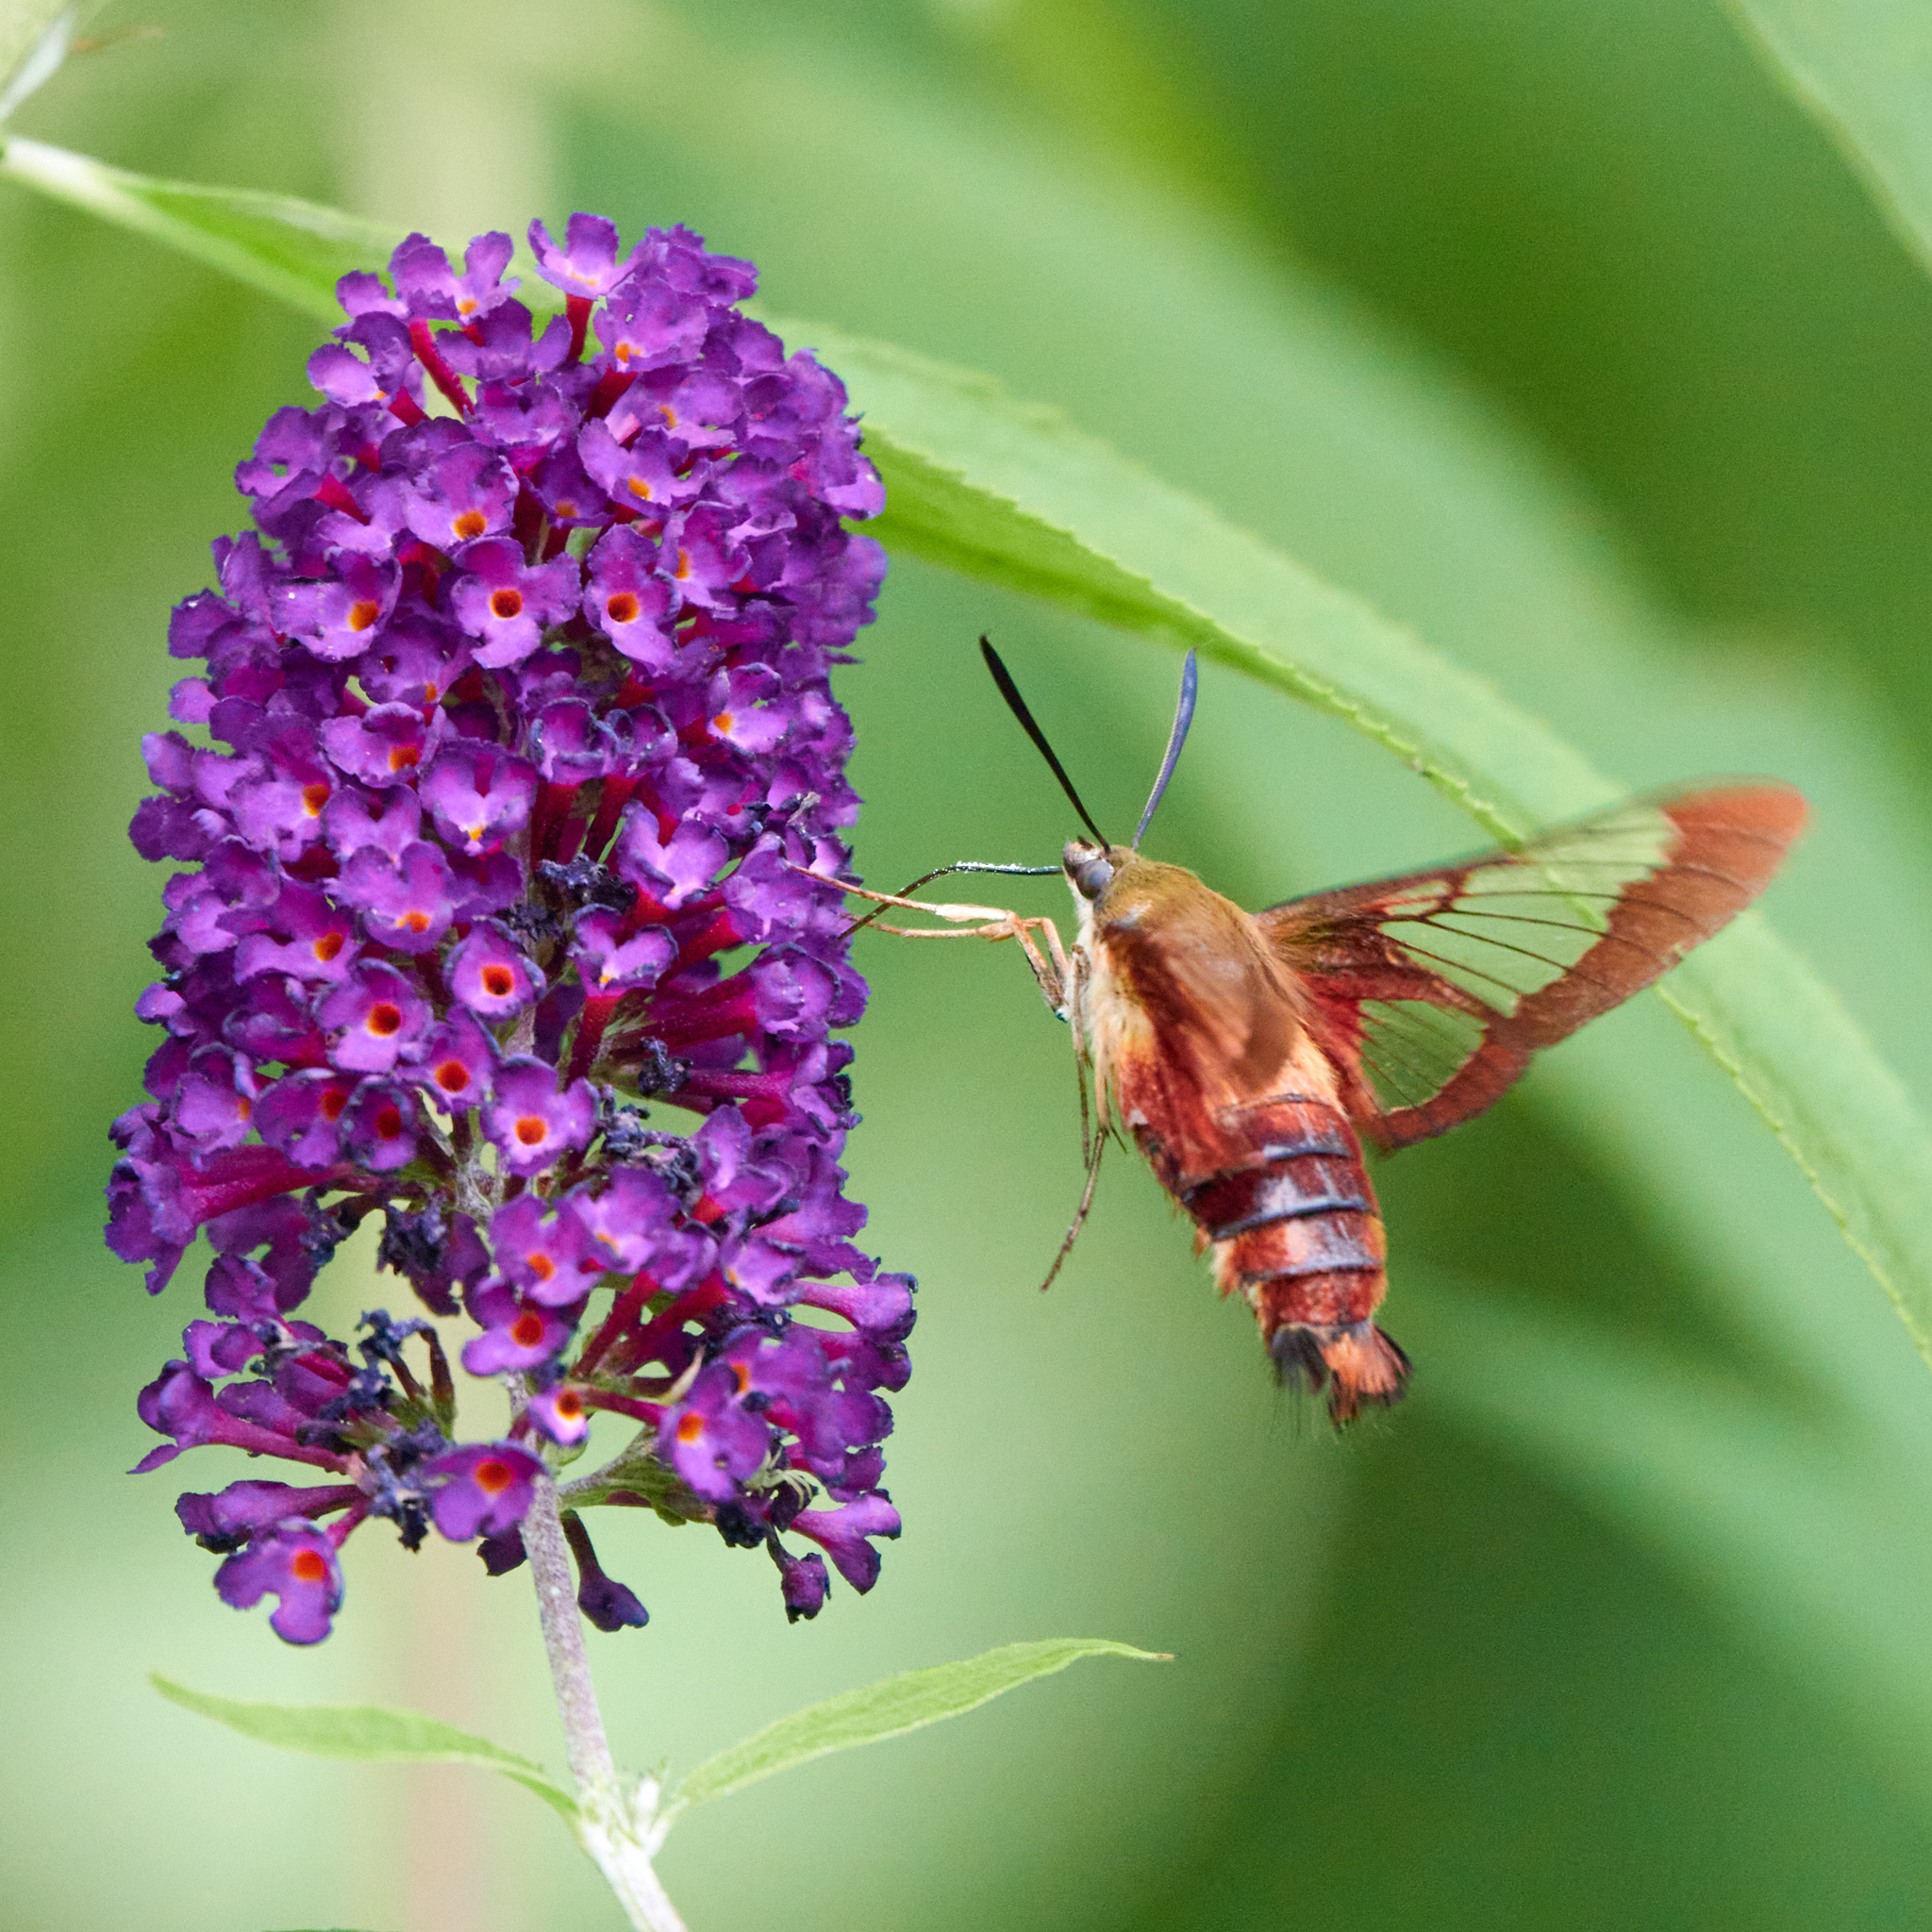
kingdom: Animalia
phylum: Arthropoda
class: Insecta
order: Lepidoptera
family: Sphingidae
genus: Hemaris
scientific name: Hemaris thysbe
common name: Common clear-wing
